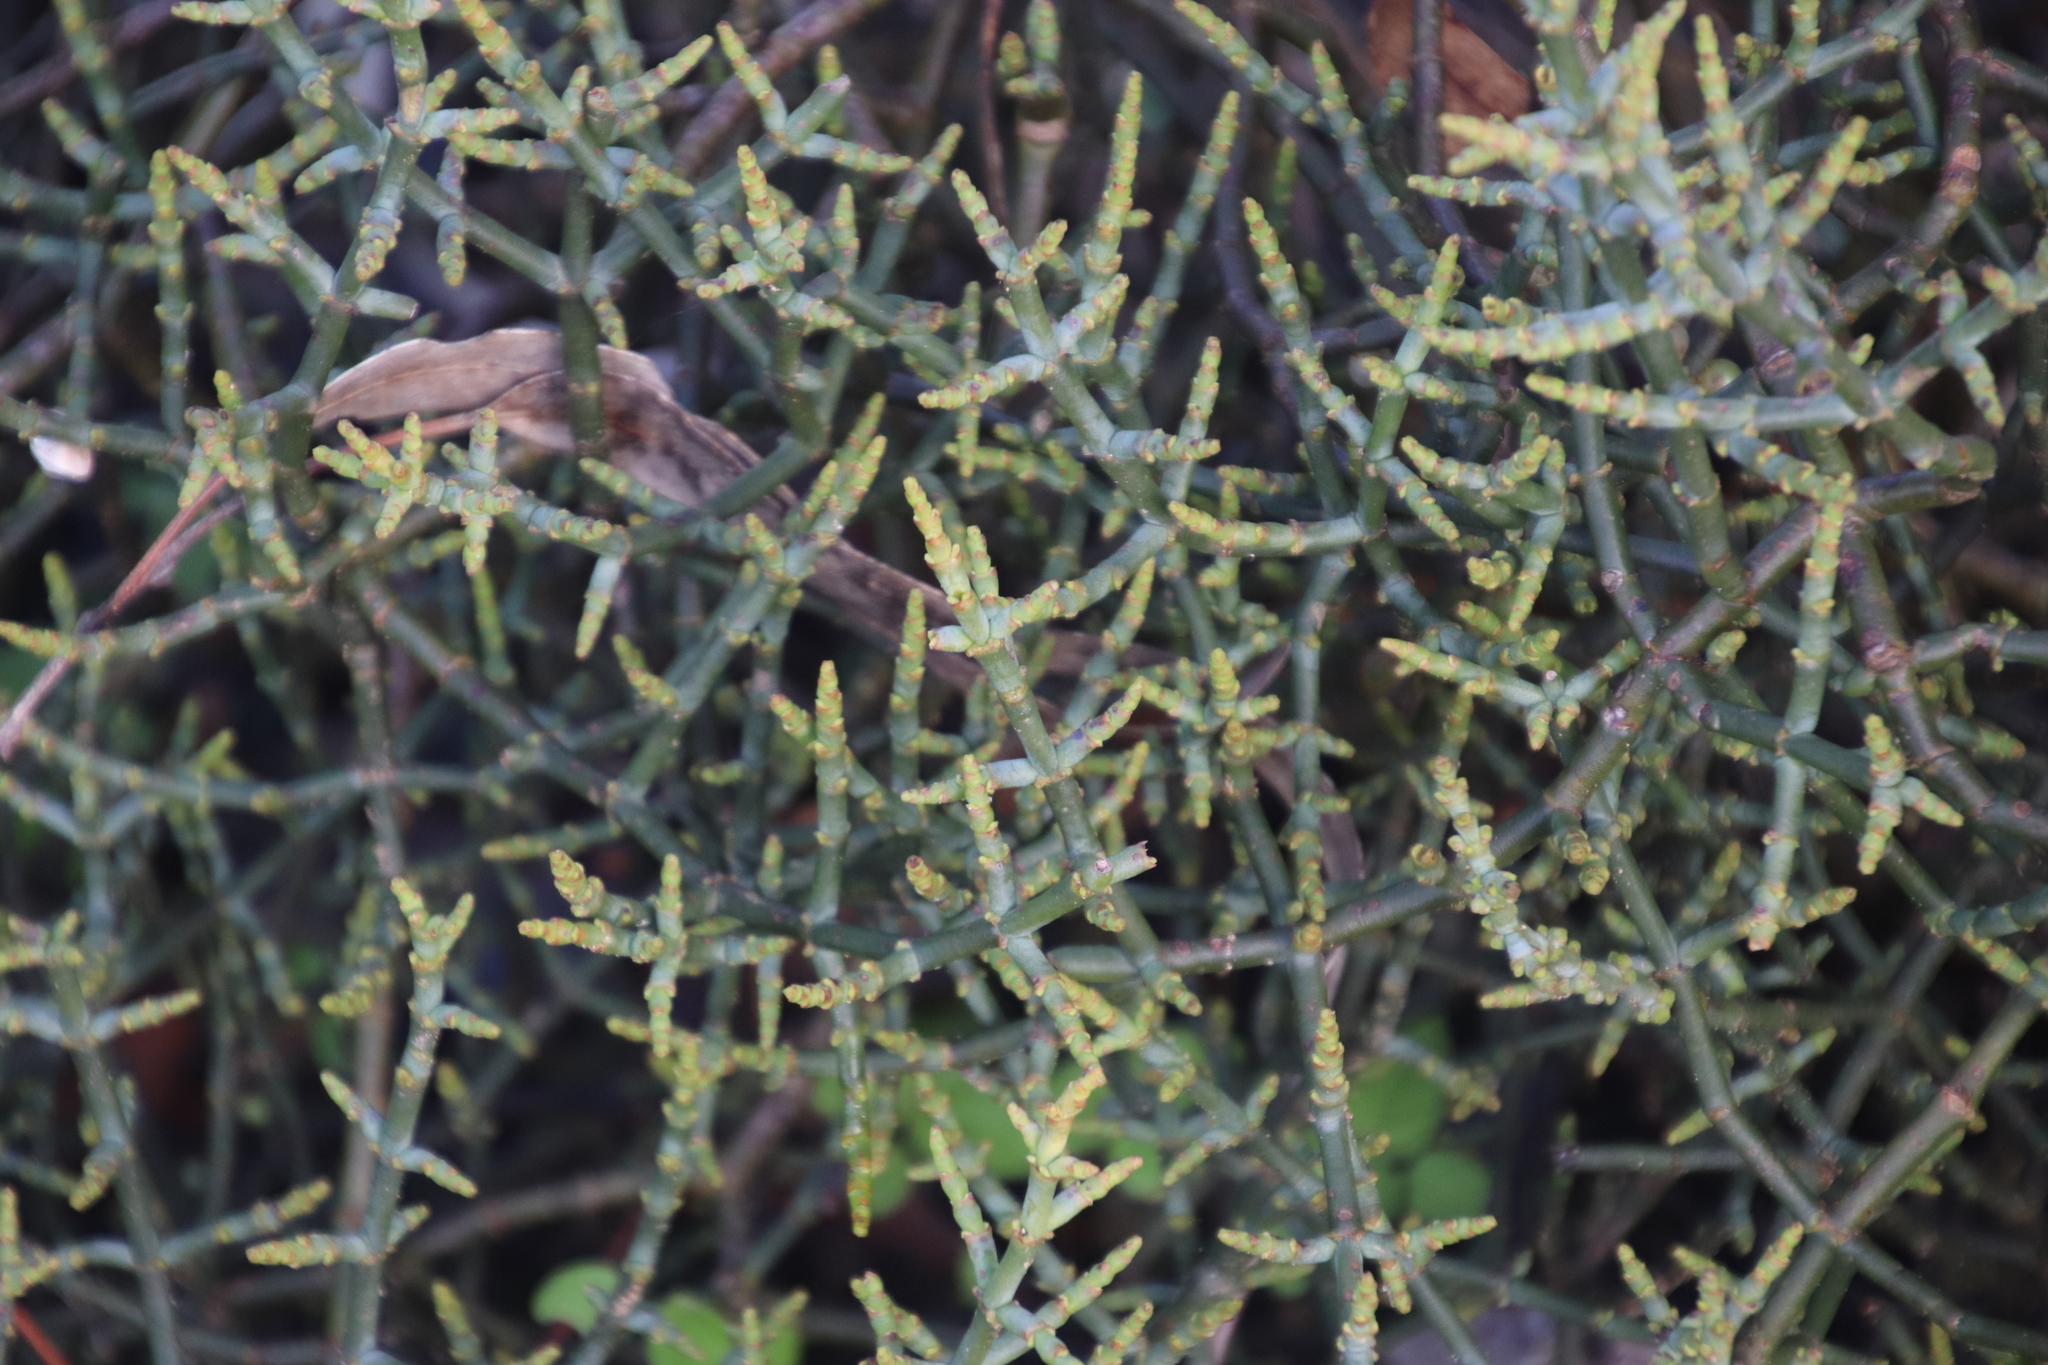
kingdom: Plantae
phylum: Tracheophyta
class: Magnoliopsida
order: Santalales
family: Viscaceae
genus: Viscum
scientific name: Viscum capense
